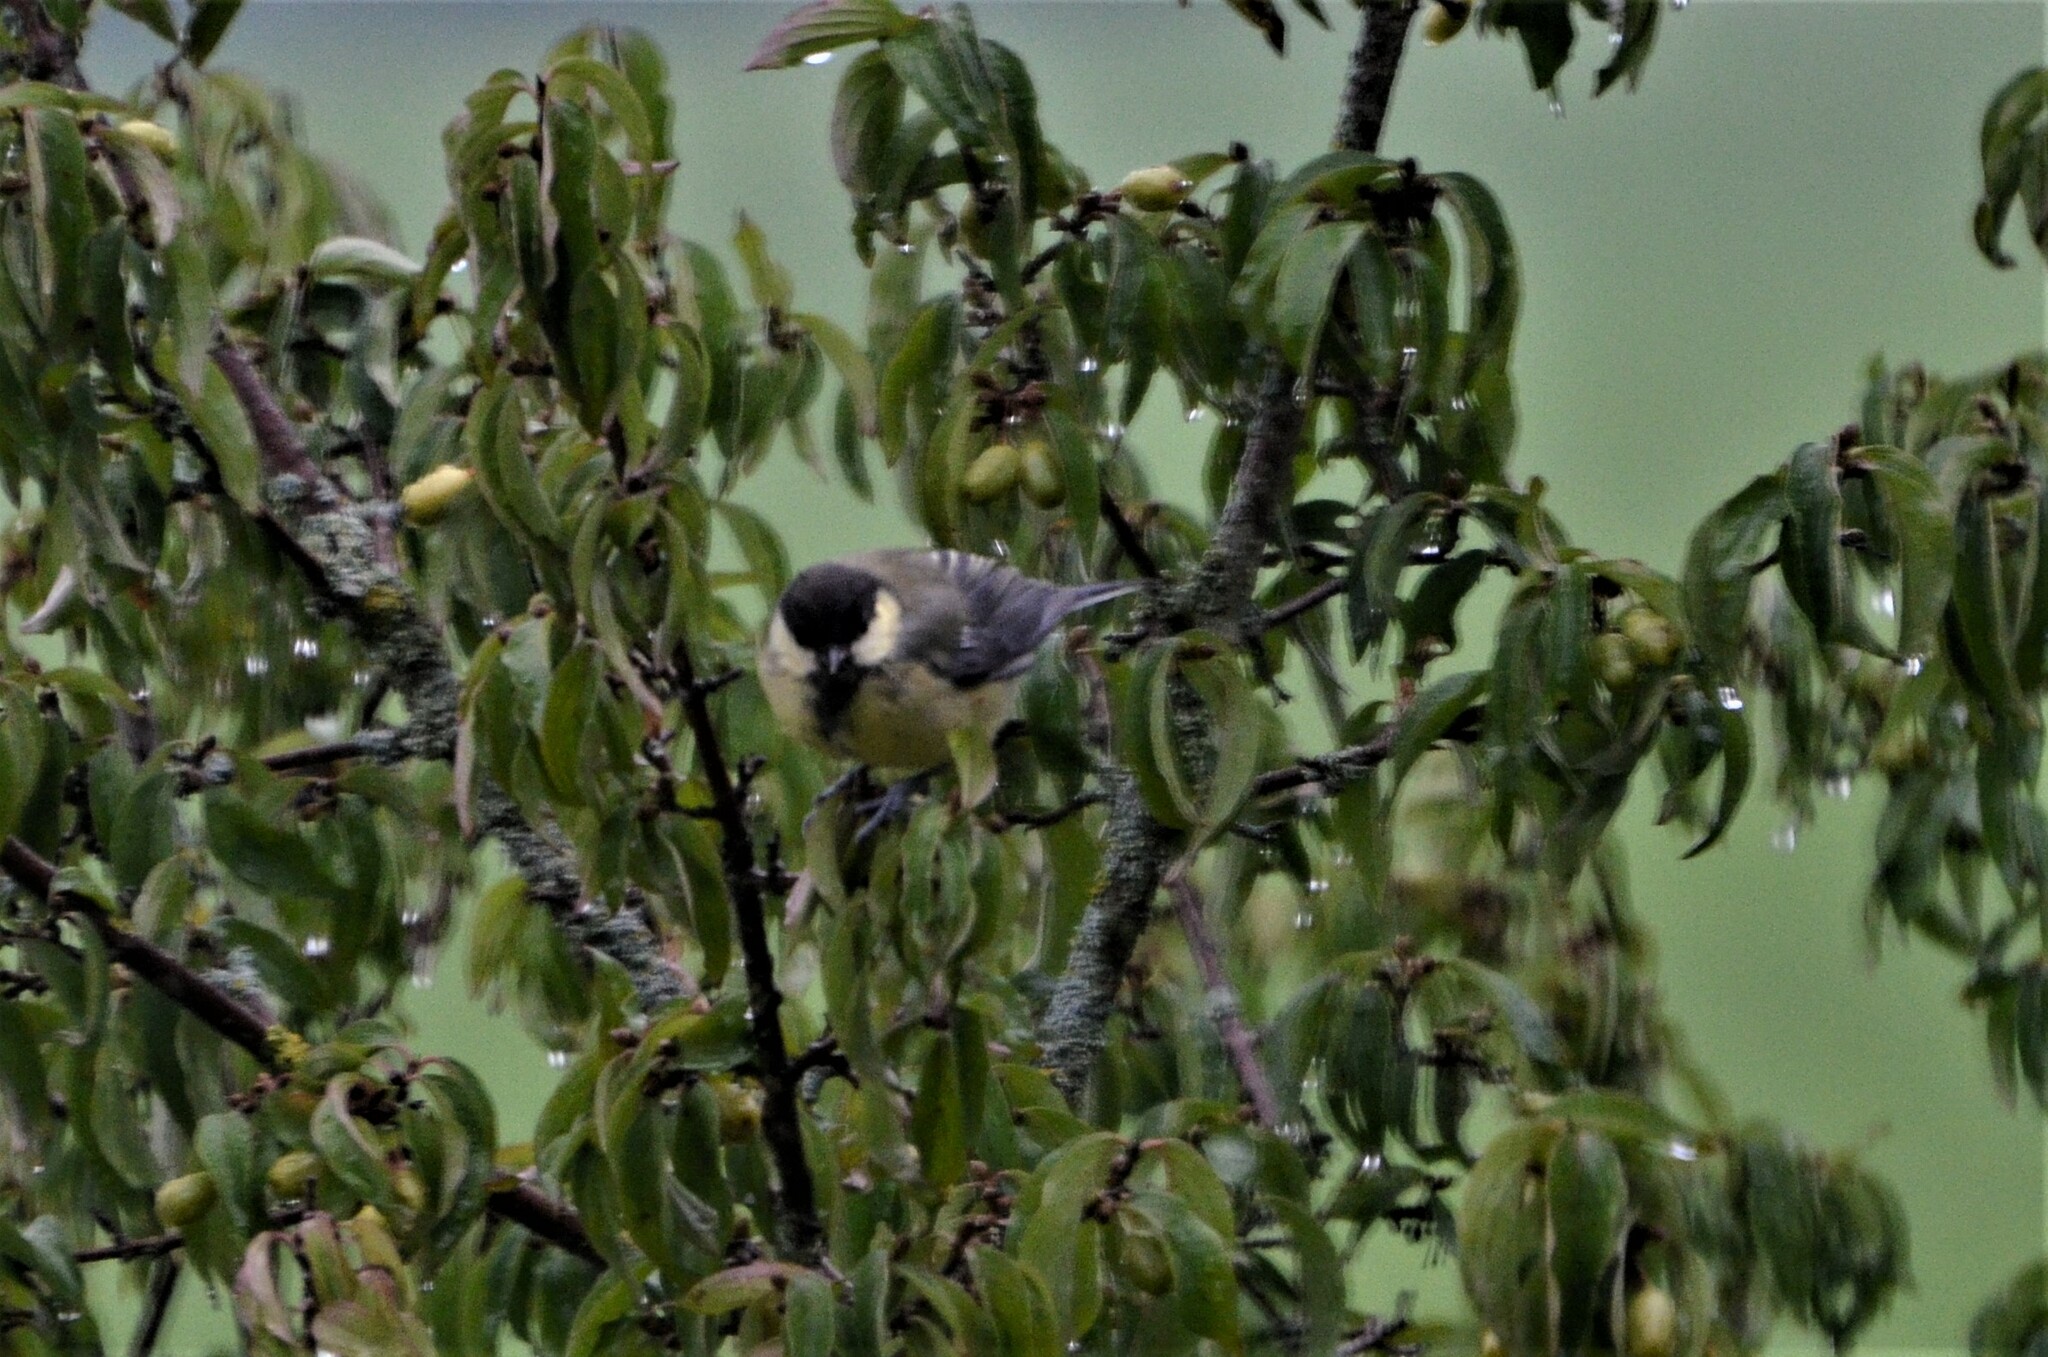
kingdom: Animalia
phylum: Chordata
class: Aves
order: Passeriformes
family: Paridae
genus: Parus
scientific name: Parus major
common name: Great tit
